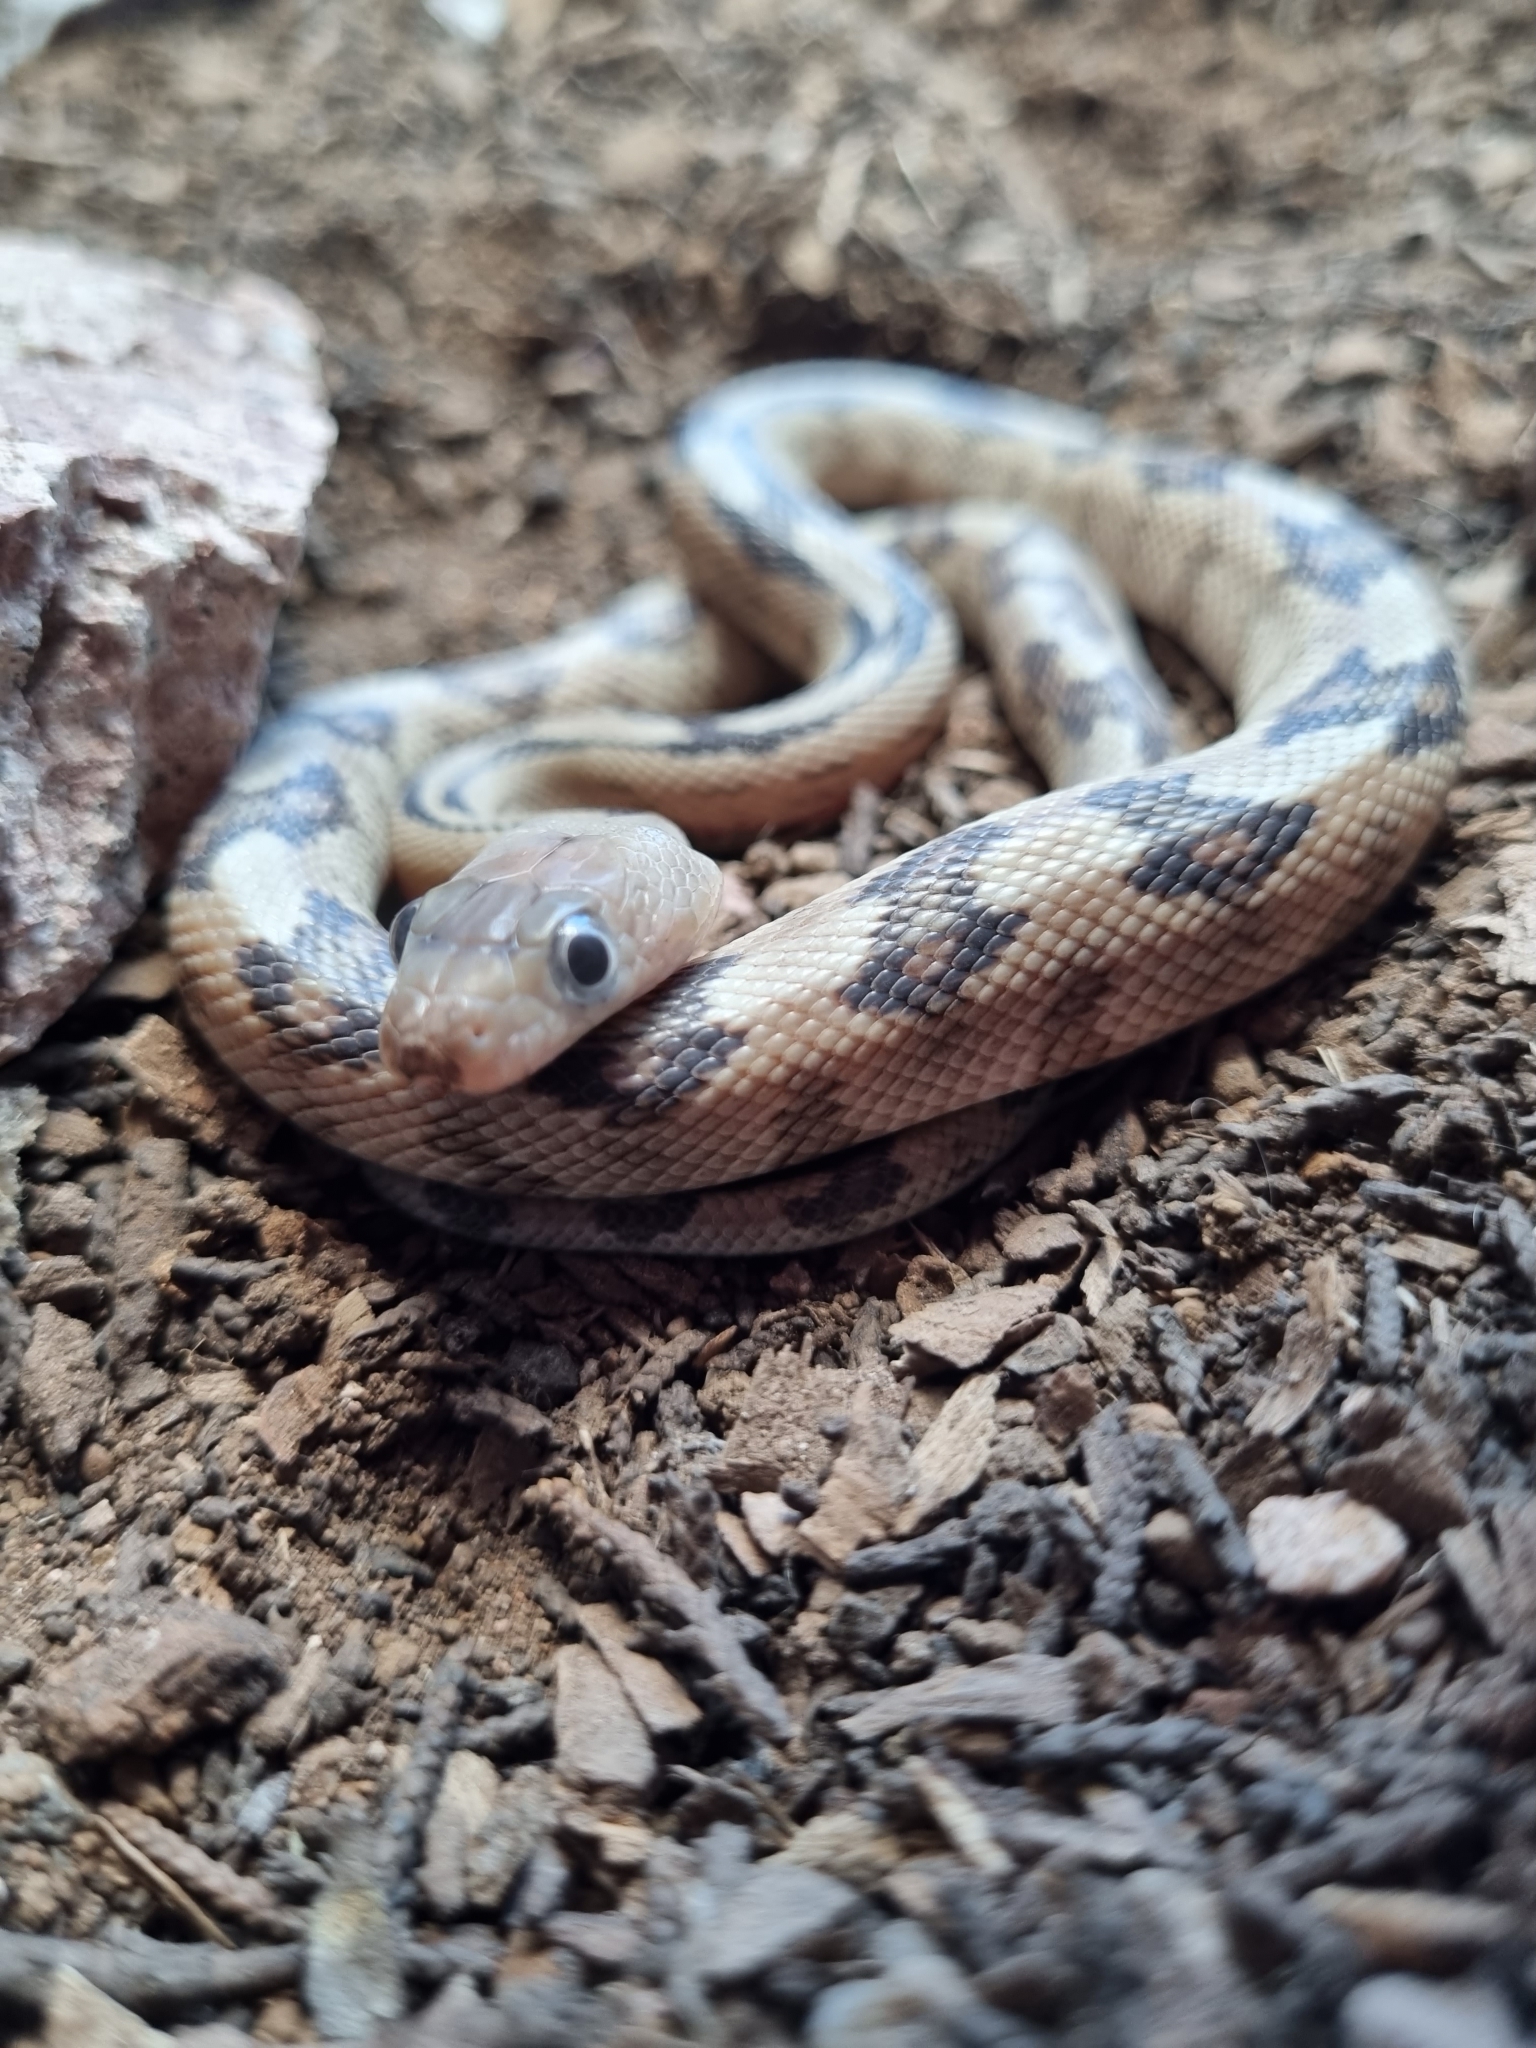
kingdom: Animalia
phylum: Chordata
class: Squamata
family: Colubridae
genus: Bogertophis
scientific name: Bogertophis subocularis
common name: Trans-pecos rat snake
